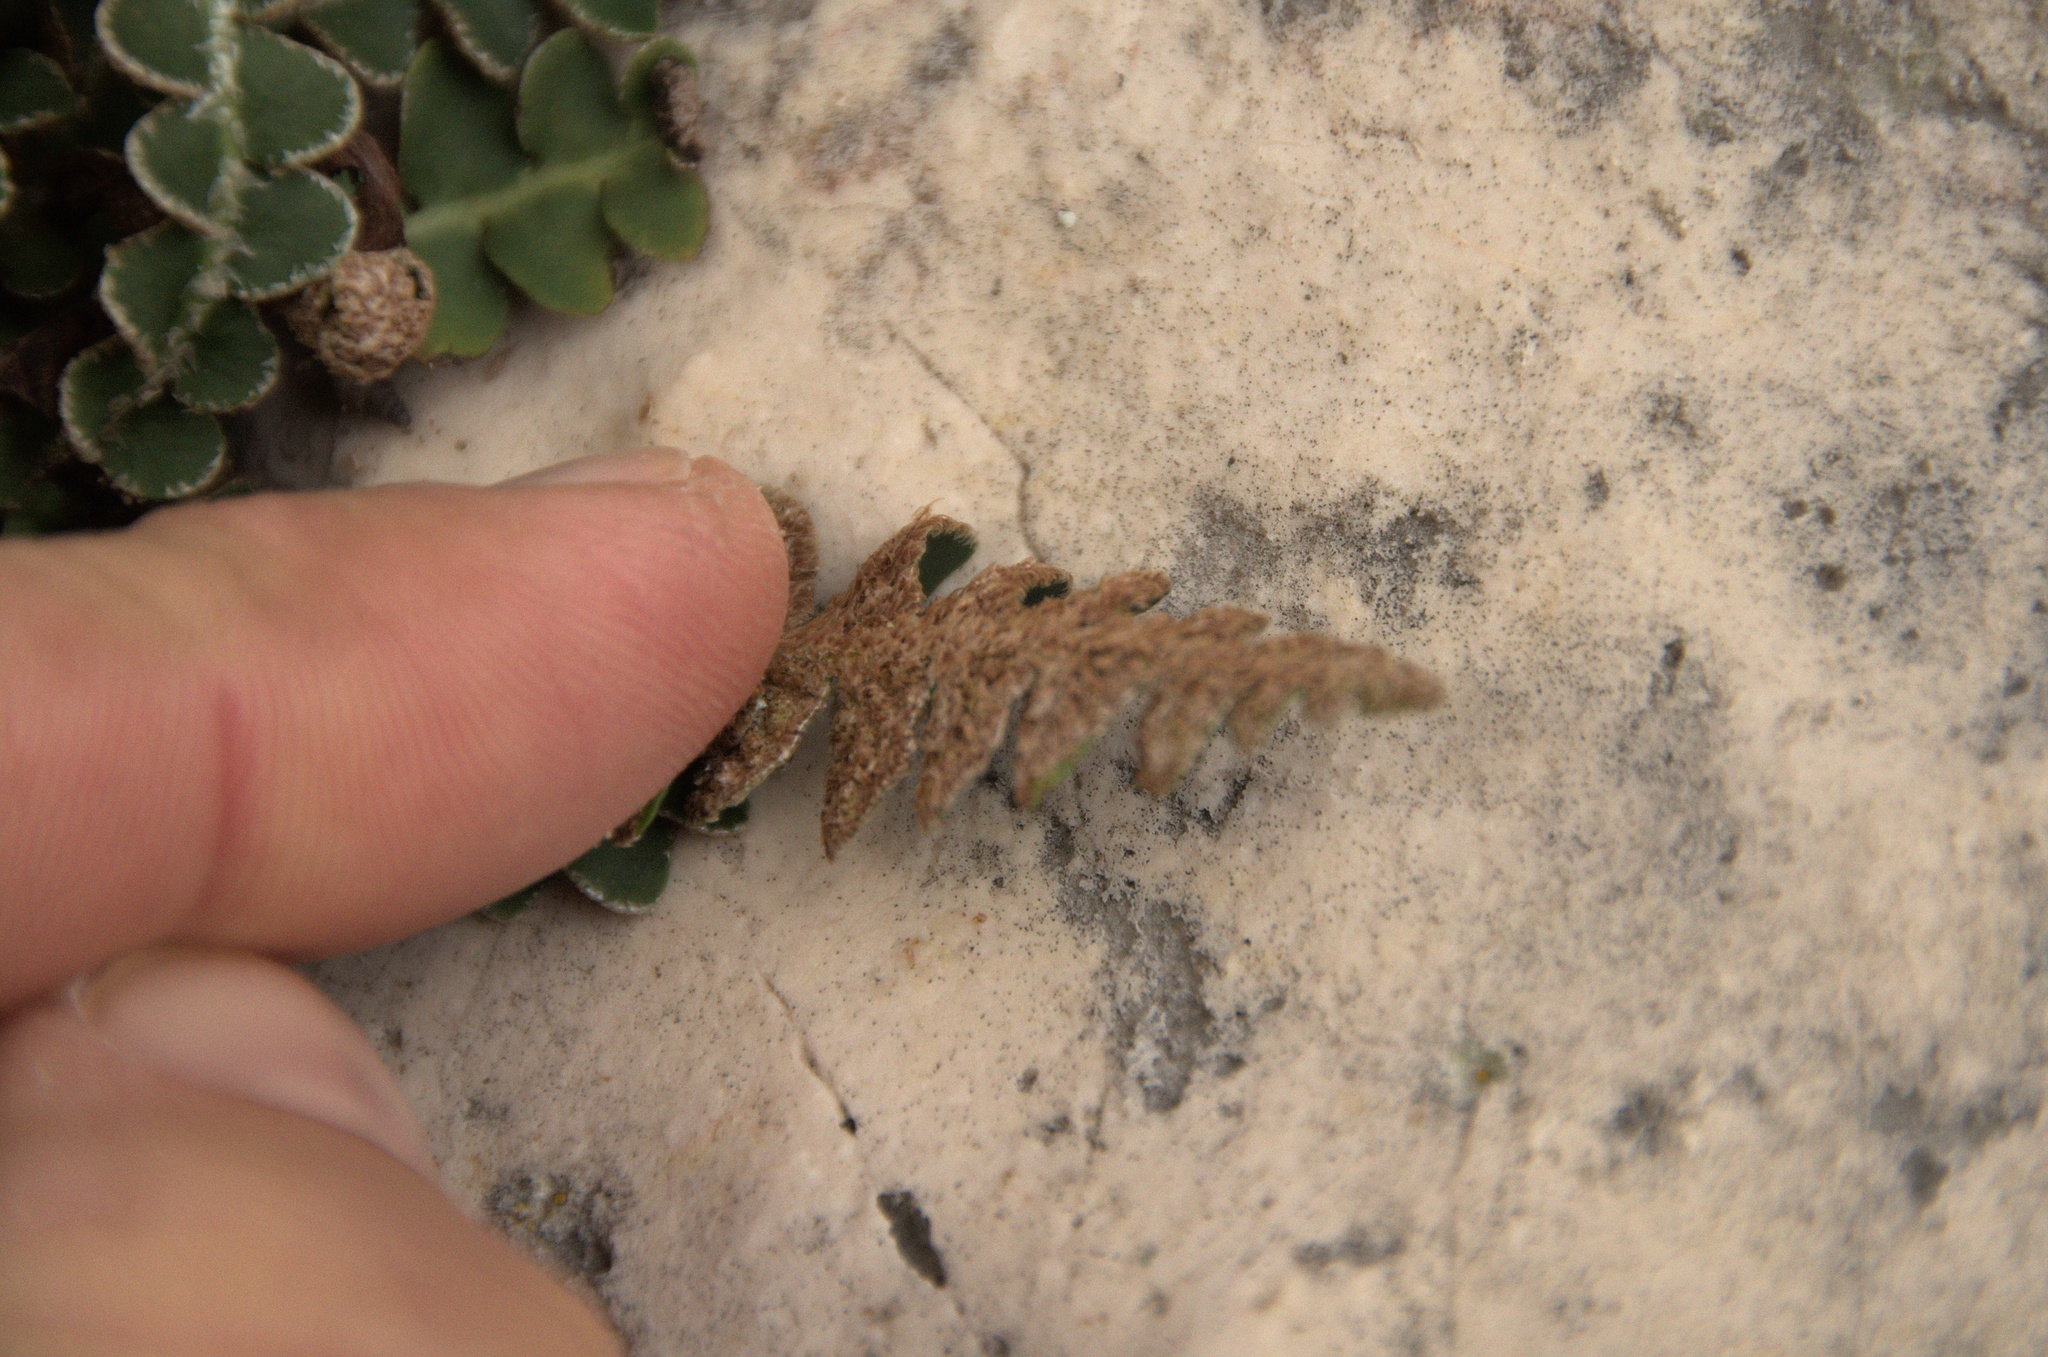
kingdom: Plantae
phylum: Tracheophyta
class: Polypodiopsida
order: Polypodiales
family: Aspleniaceae
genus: Asplenium
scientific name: Asplenium ceterach
